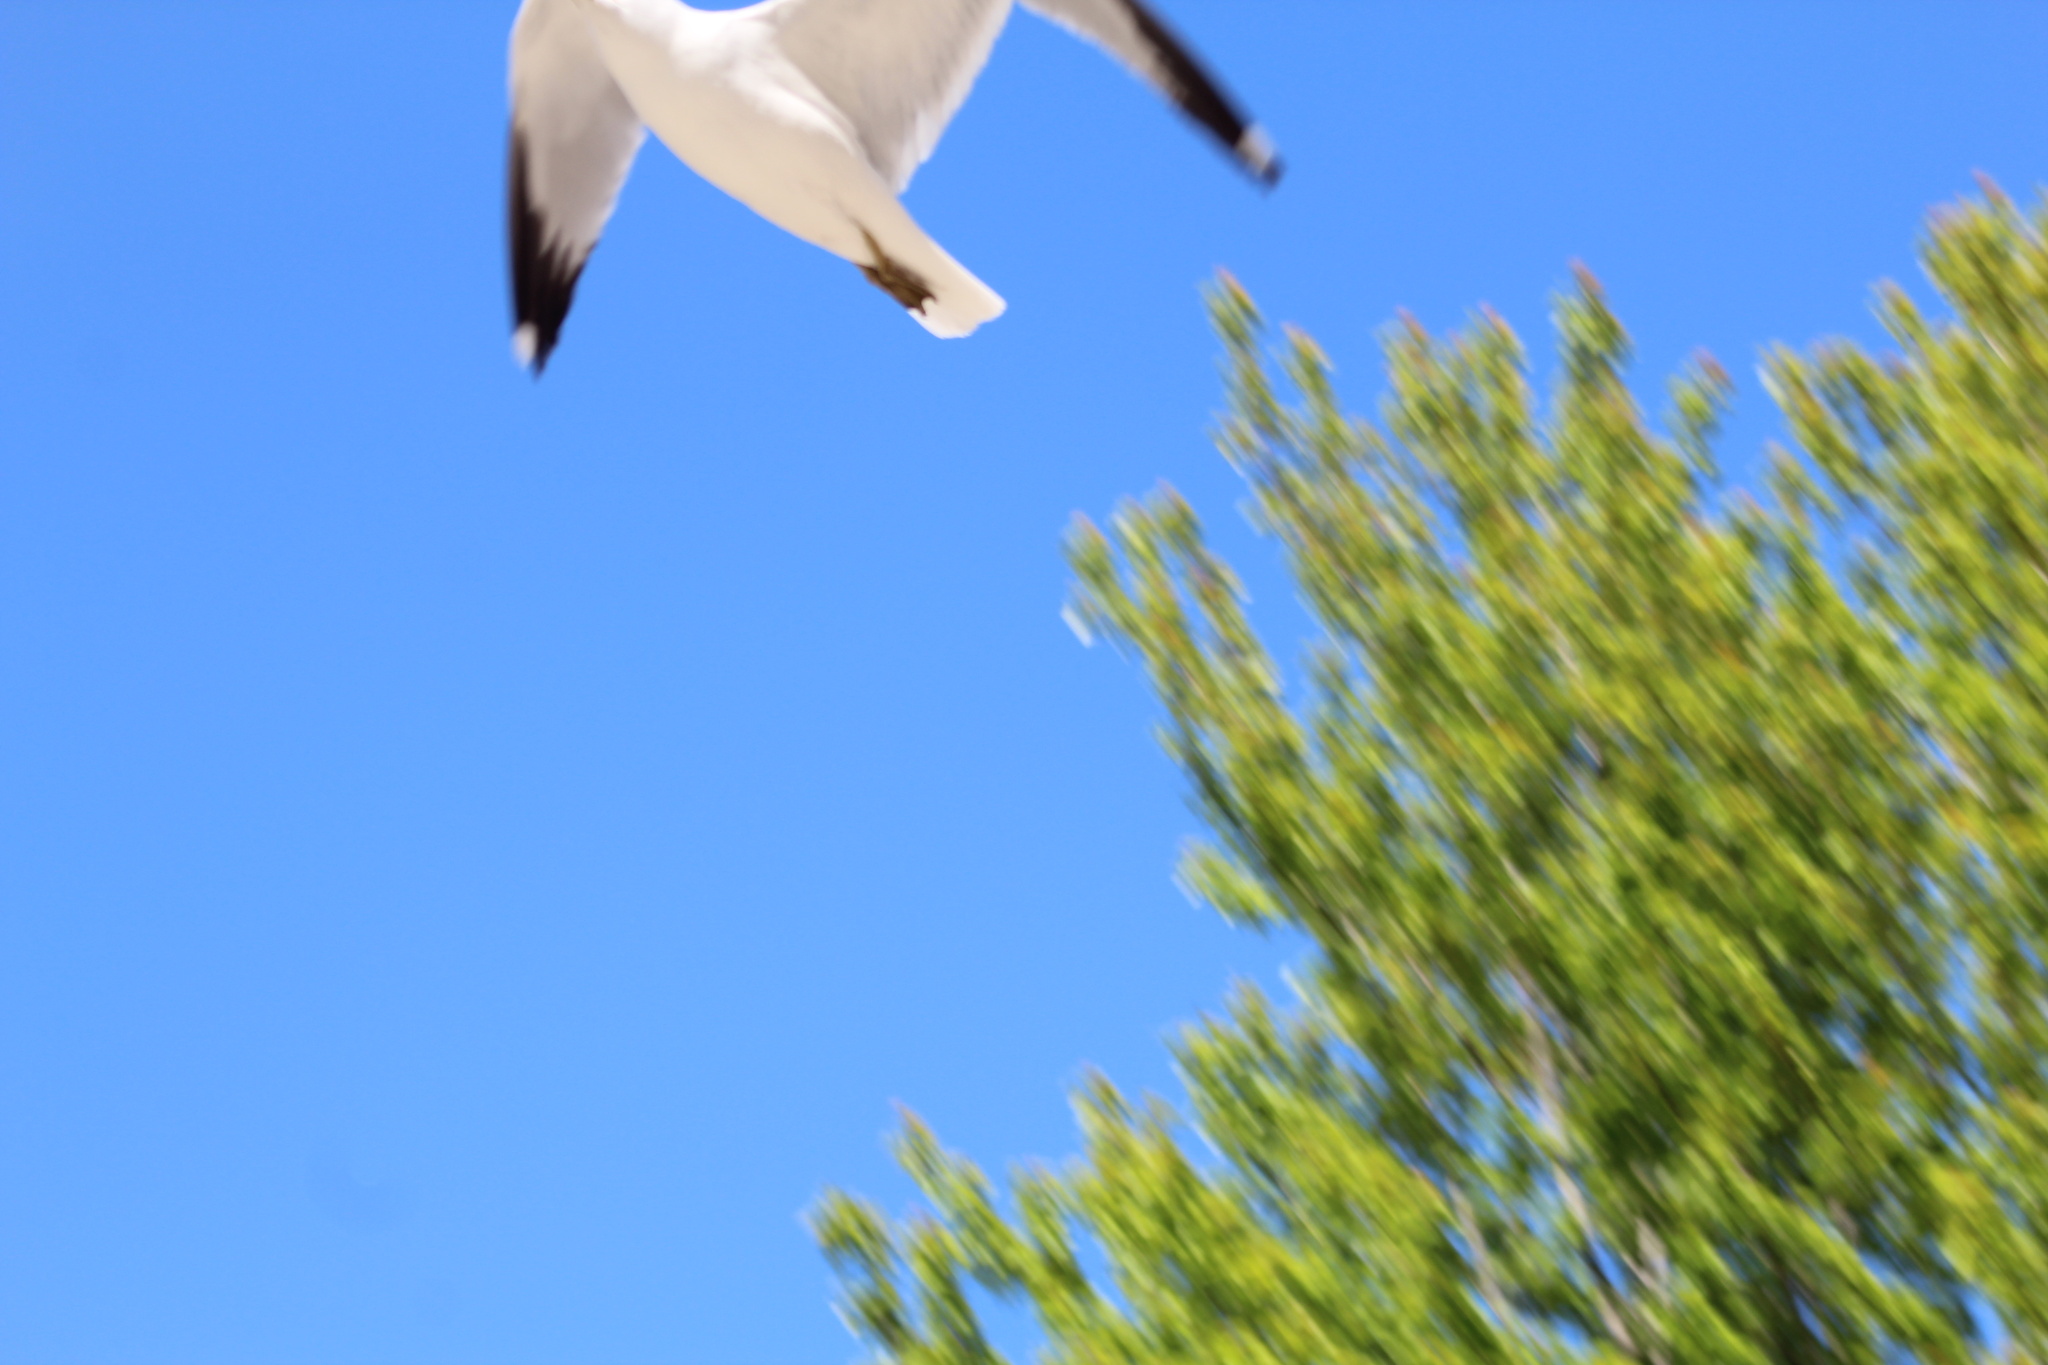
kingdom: Animalia
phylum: Chordata
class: Aves
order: Charadriiformes
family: Laridae
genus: Larus
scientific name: Larus delawarensis
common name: Ring-billed gull
